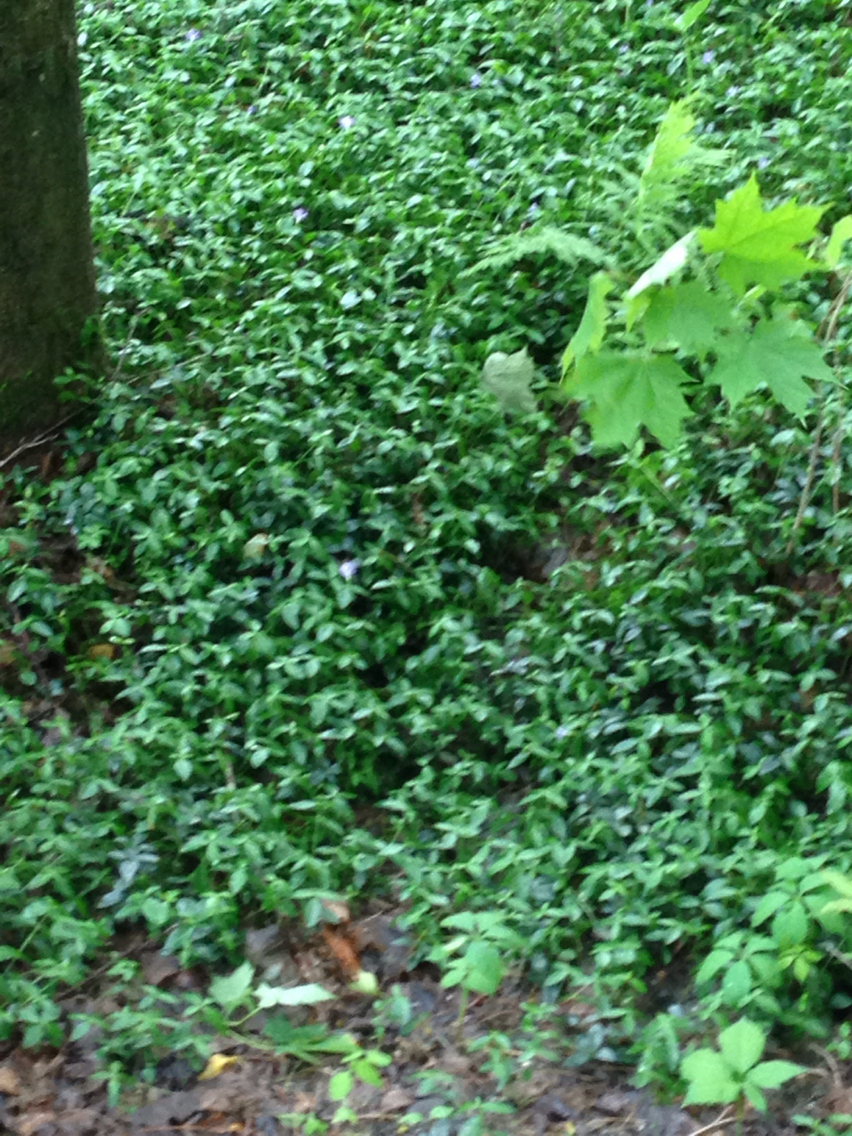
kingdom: Plantae
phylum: Tracheophyta
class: Magnoliopsida
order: Gentianales
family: Apocynaceae
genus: Vinca
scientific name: Vinca minor
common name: Lesser periwinkle
